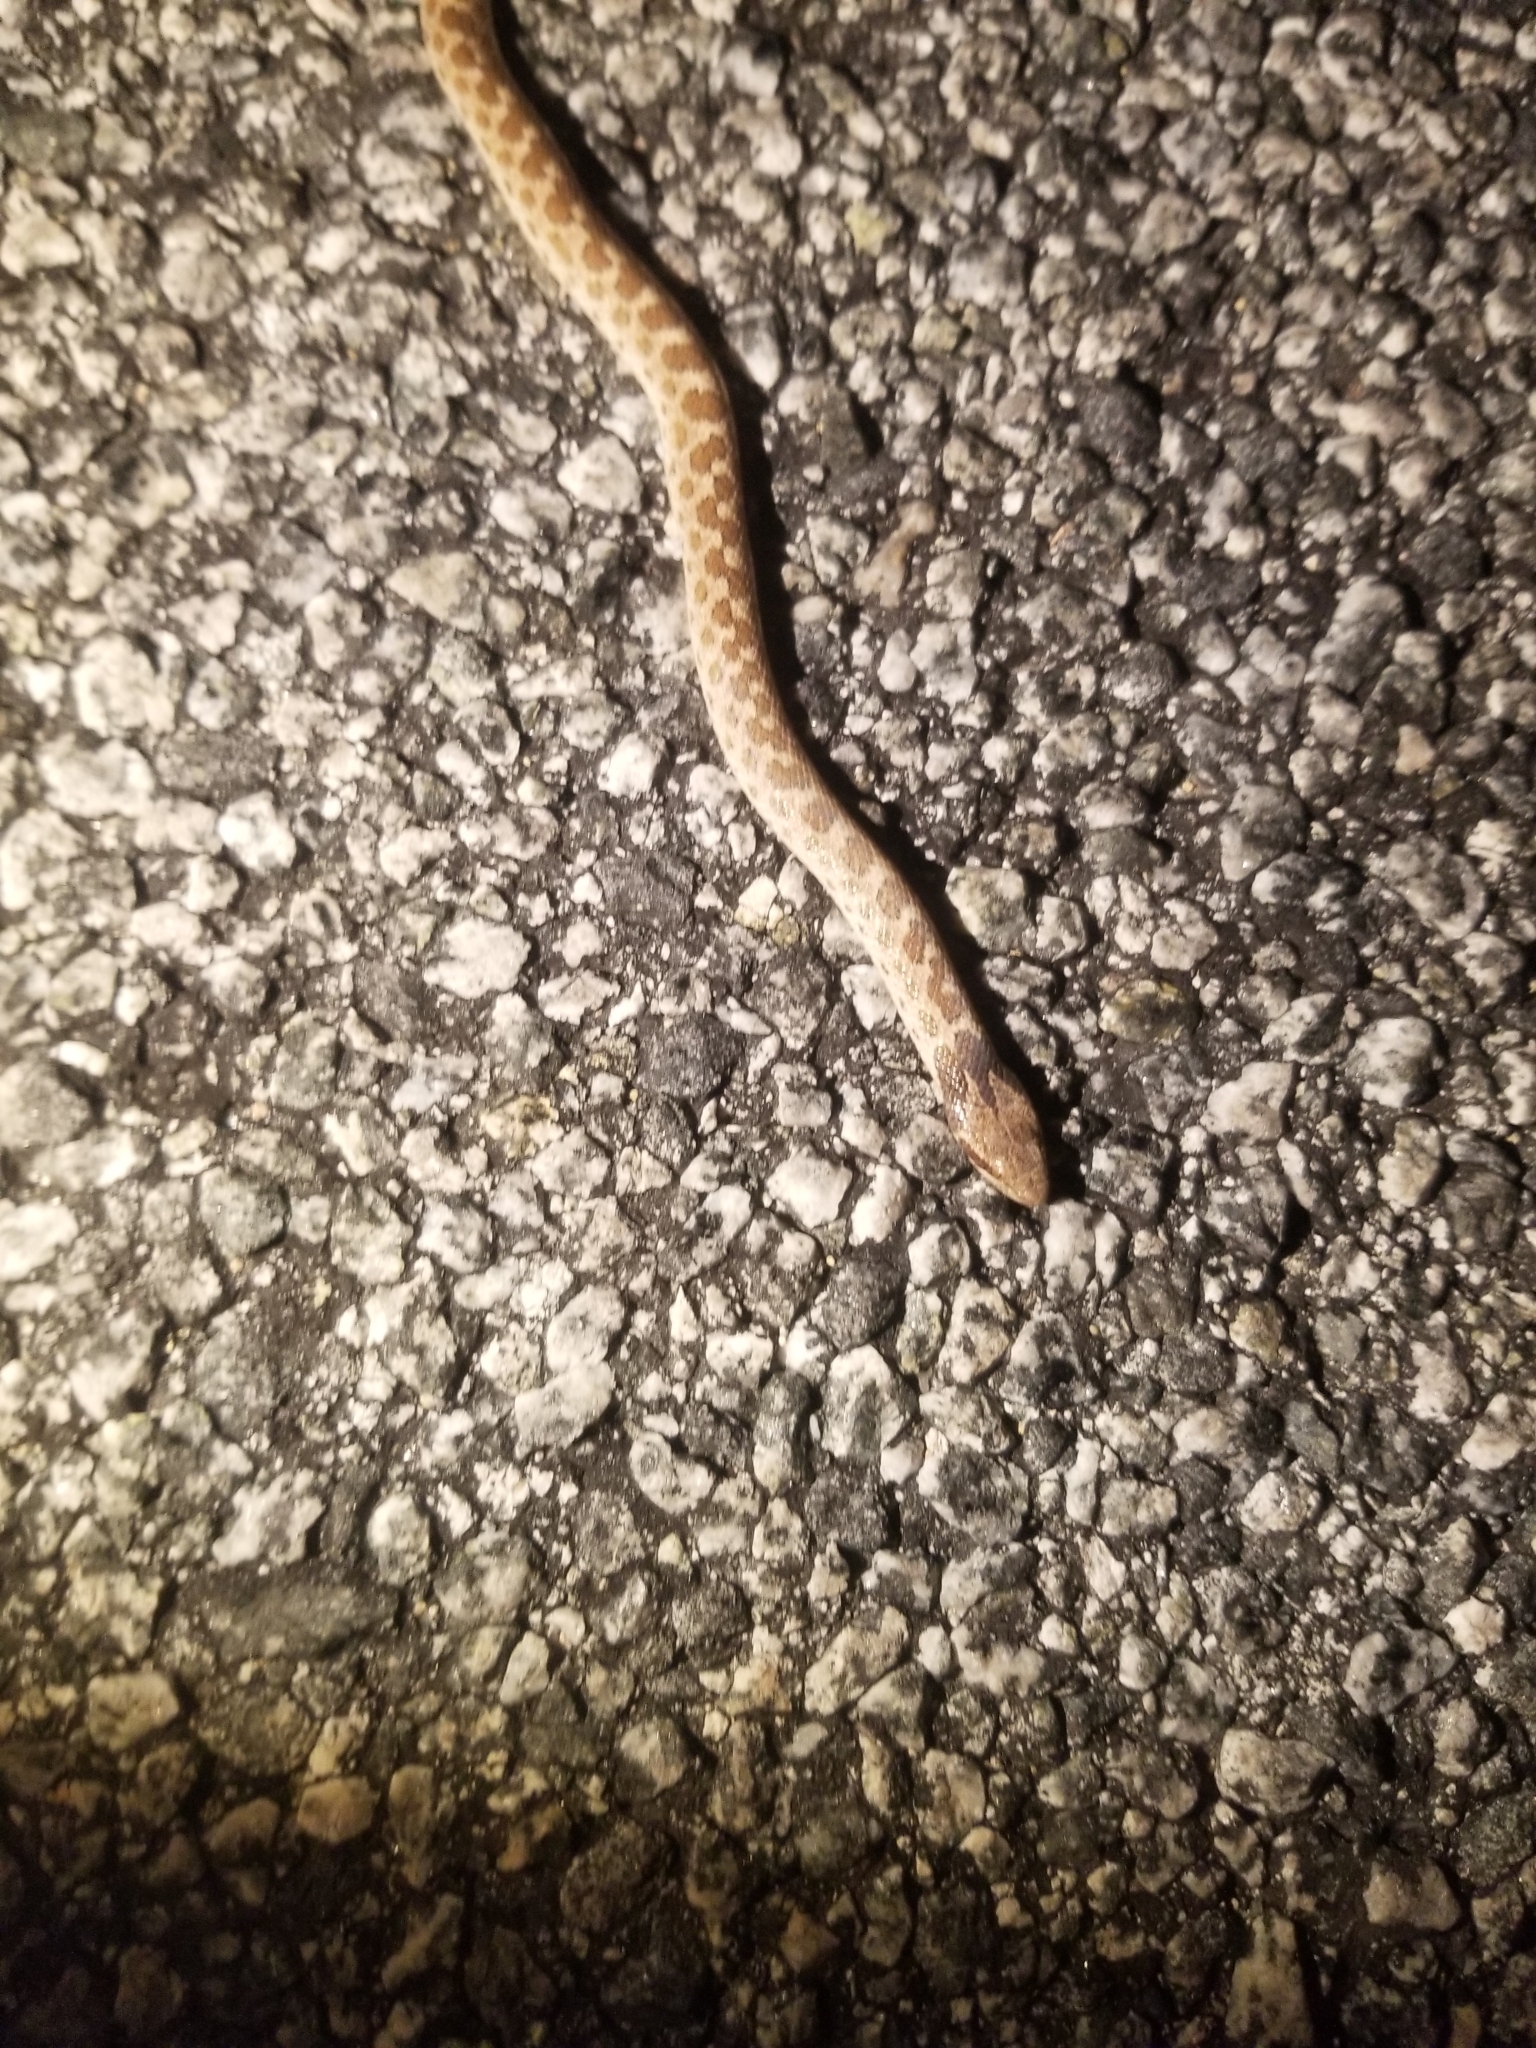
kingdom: Animalia
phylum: Chordata
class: Squamata
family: Colubridae
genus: Hypsiglena
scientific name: Hypsiglena ochrorhynchus
